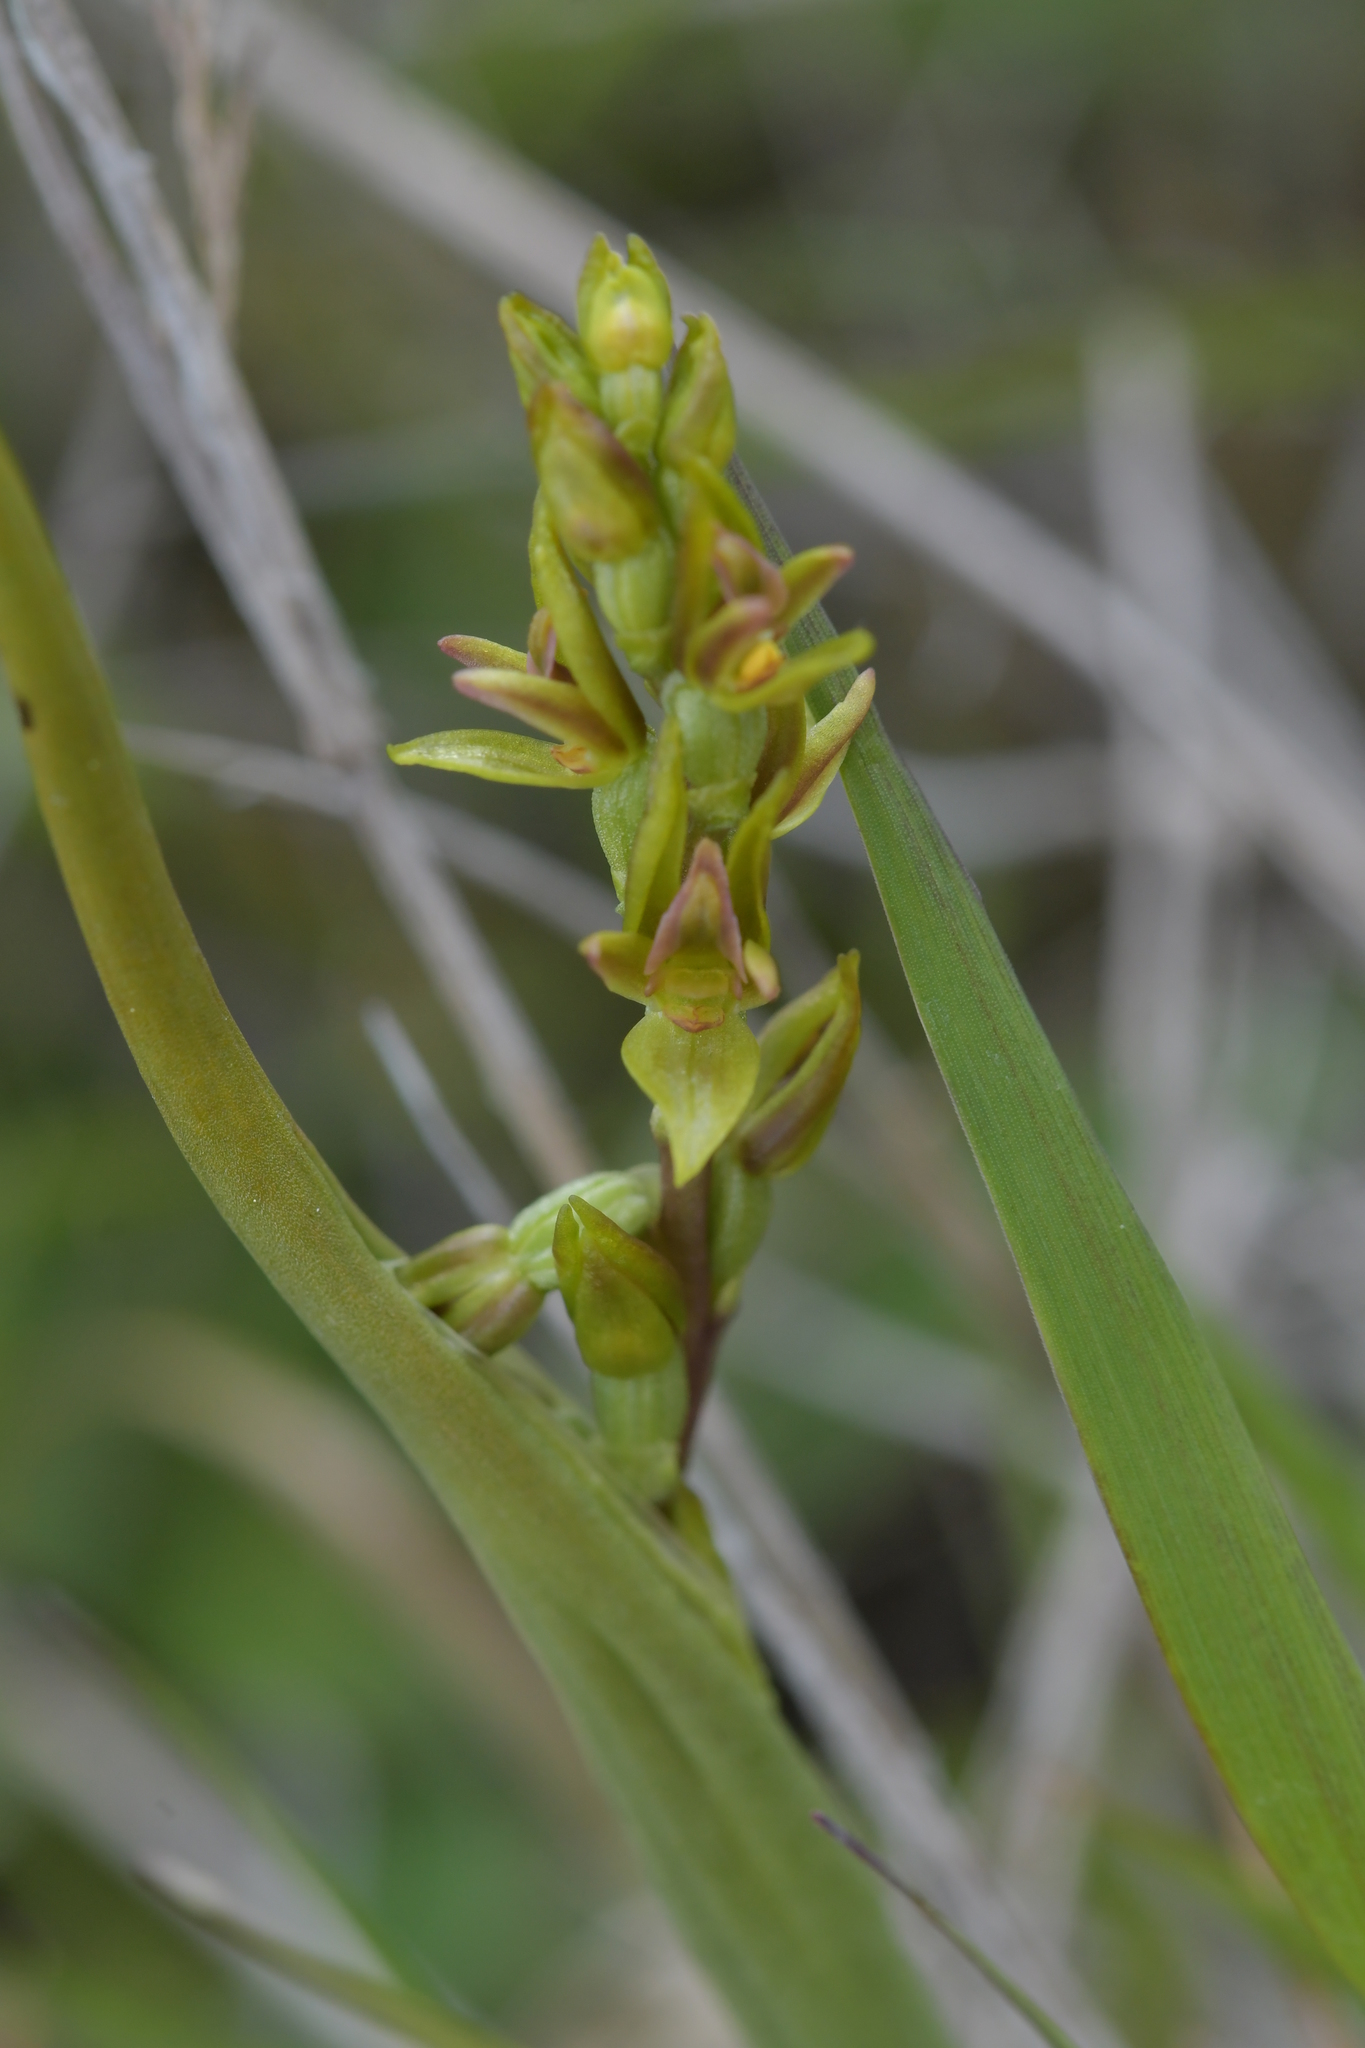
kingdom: Plantae
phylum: Tracheophyta
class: Liliopsida
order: Asparagales
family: Orchidaceae
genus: Prasophyllum
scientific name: Prasophyllum colensoi
